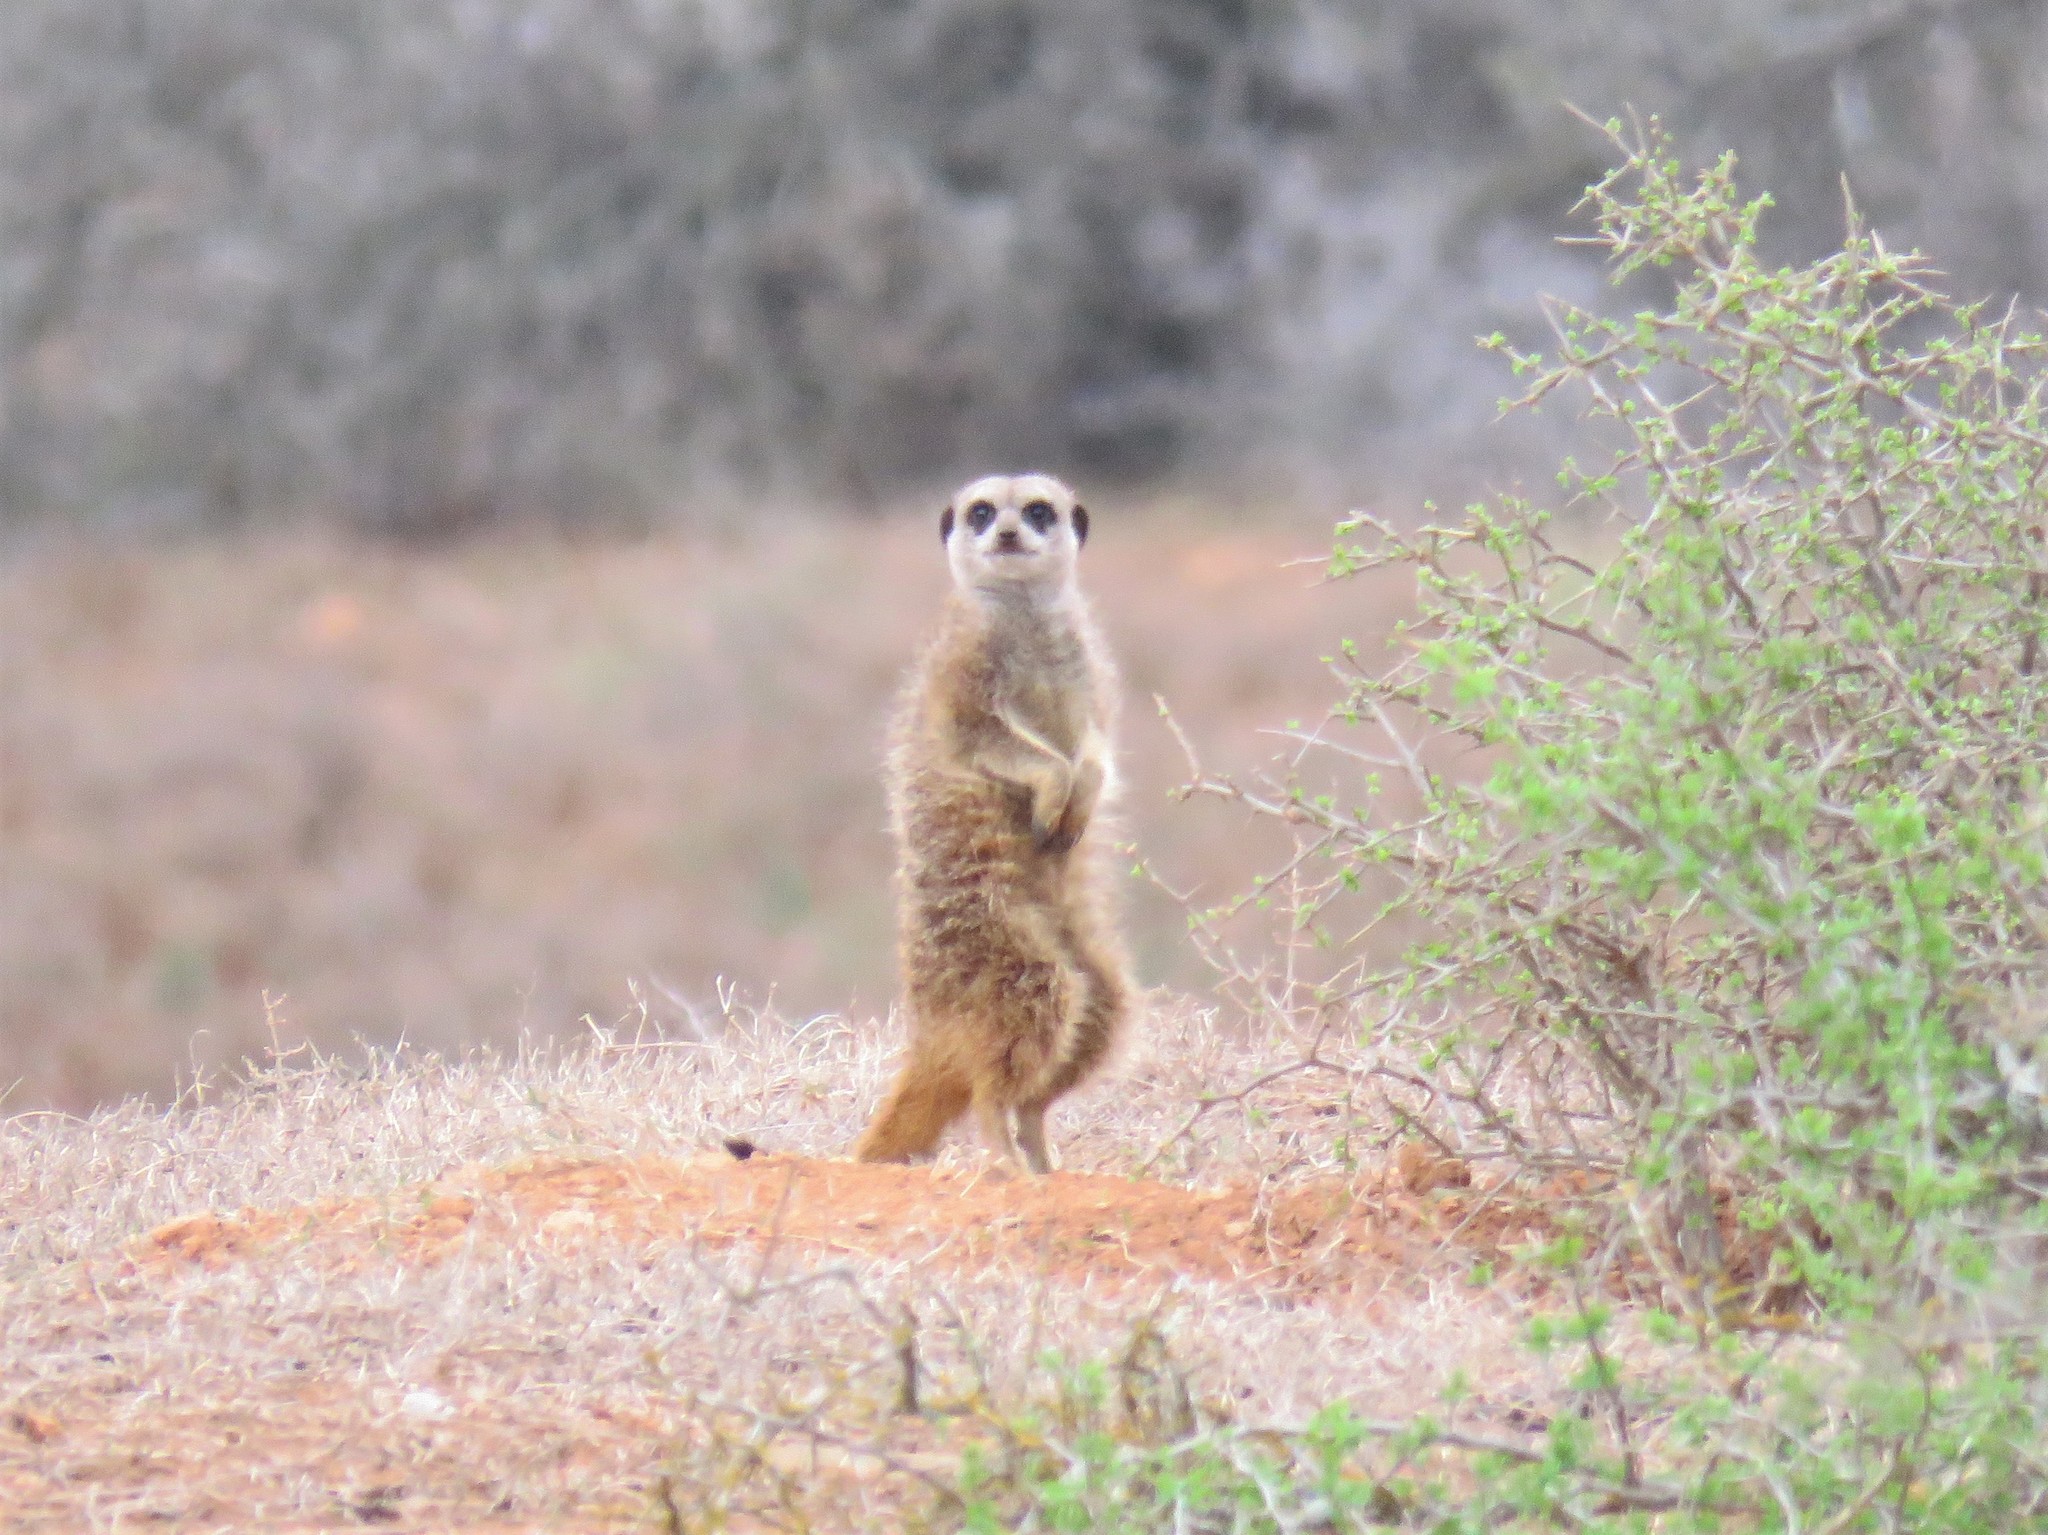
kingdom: Animalia
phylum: Chordata
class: Mammalia
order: Carnivora
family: Herpestidae
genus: Suricata
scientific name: Suricata suricatta
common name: Meerkat
